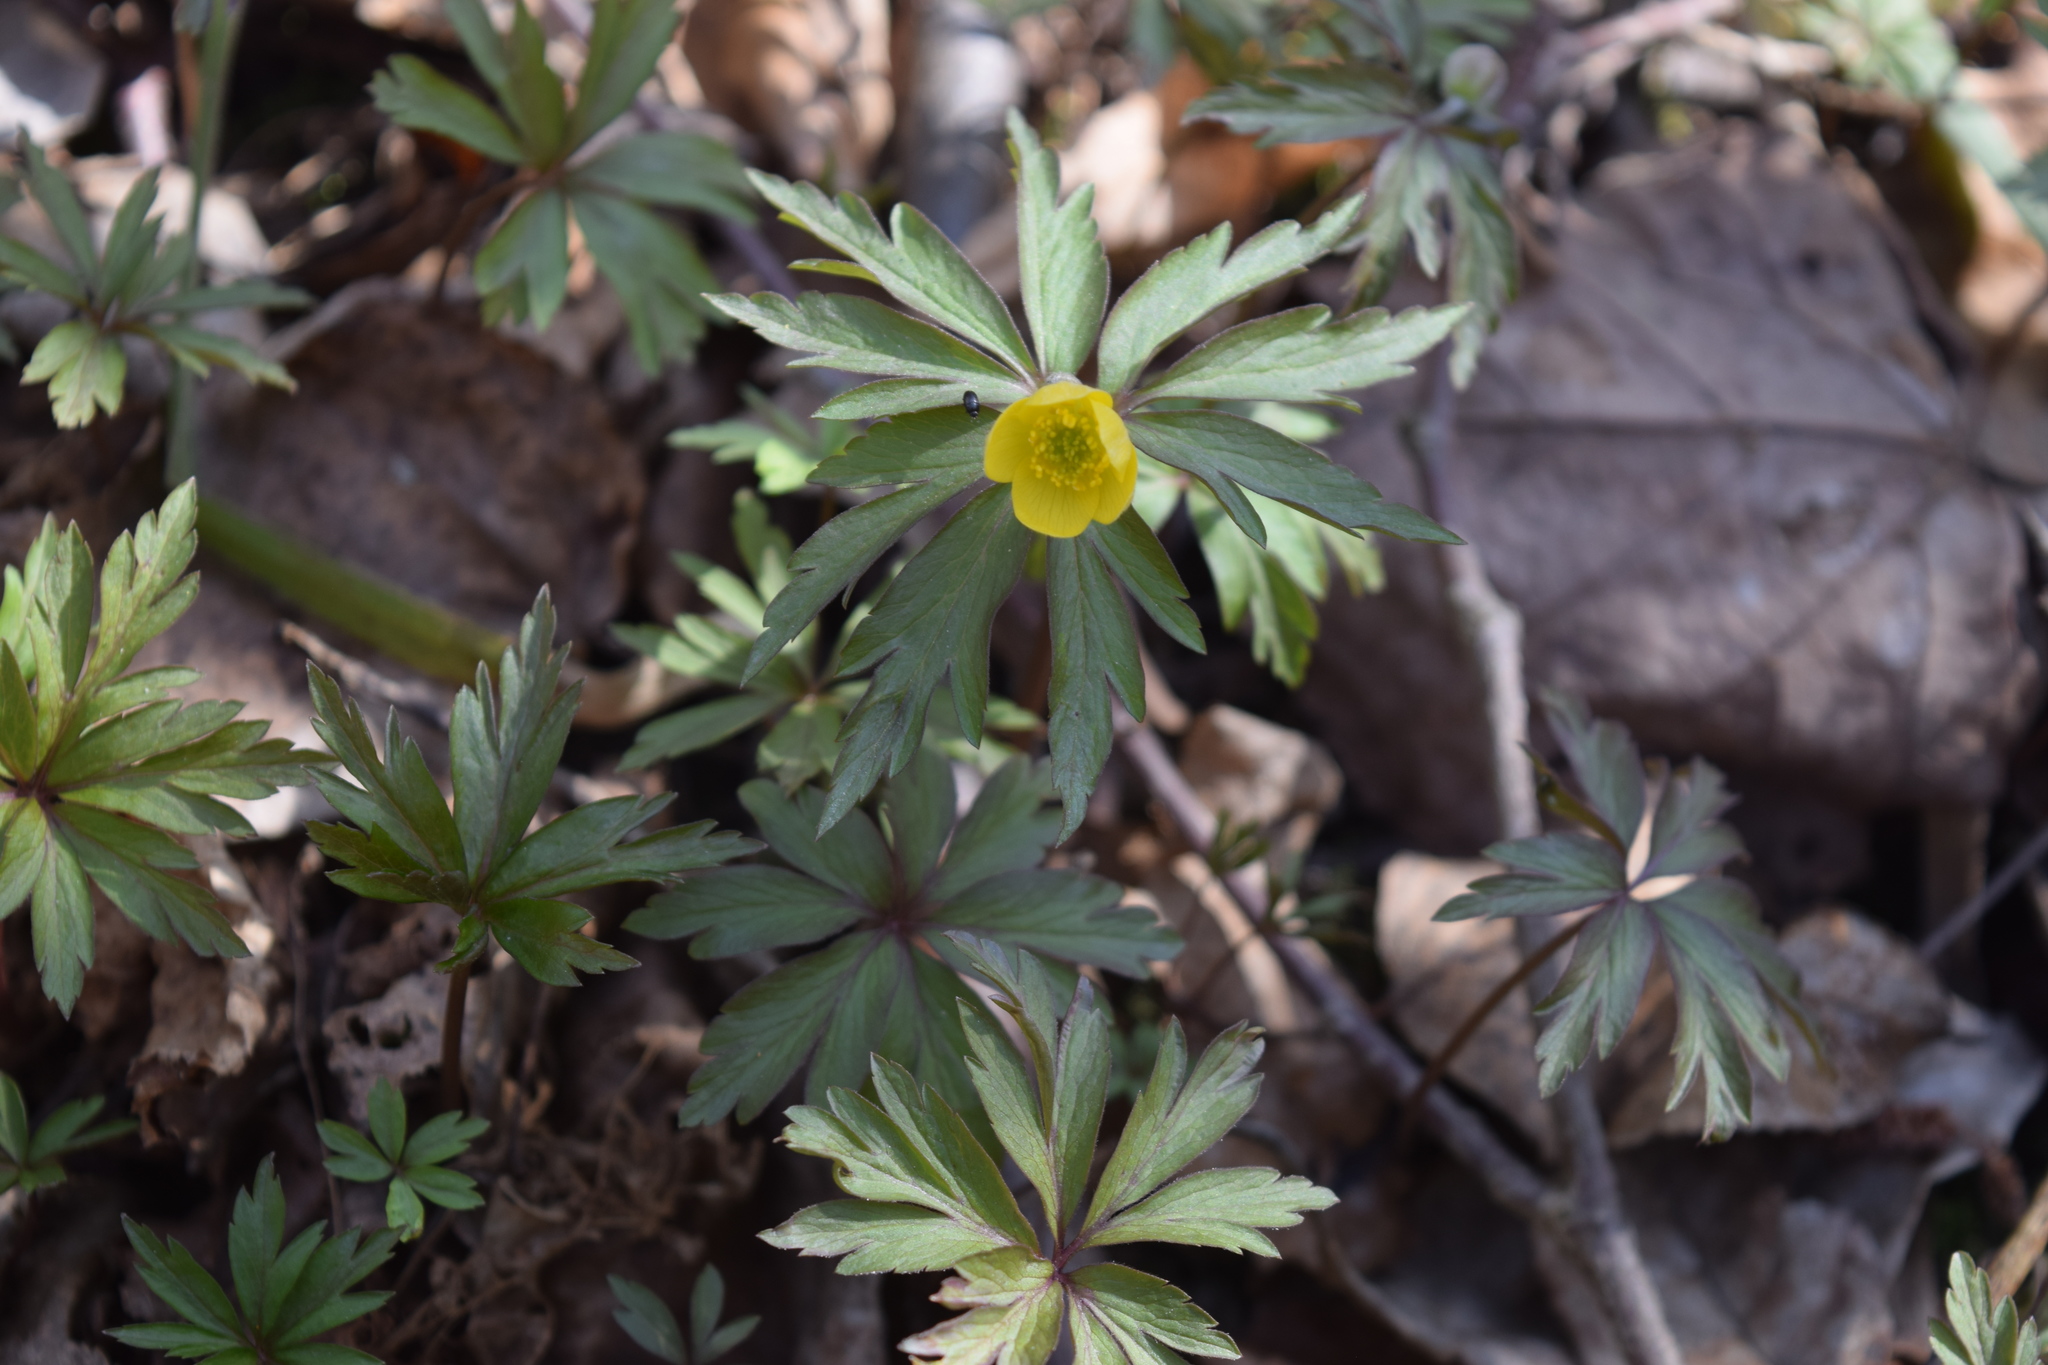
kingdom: Plantae
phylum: Tracheophyta
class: Magnoliopsida
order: Ranunculales
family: Ranunculaceae
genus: Anemone
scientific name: Anemone ranunculoides
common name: Yellow anemone
